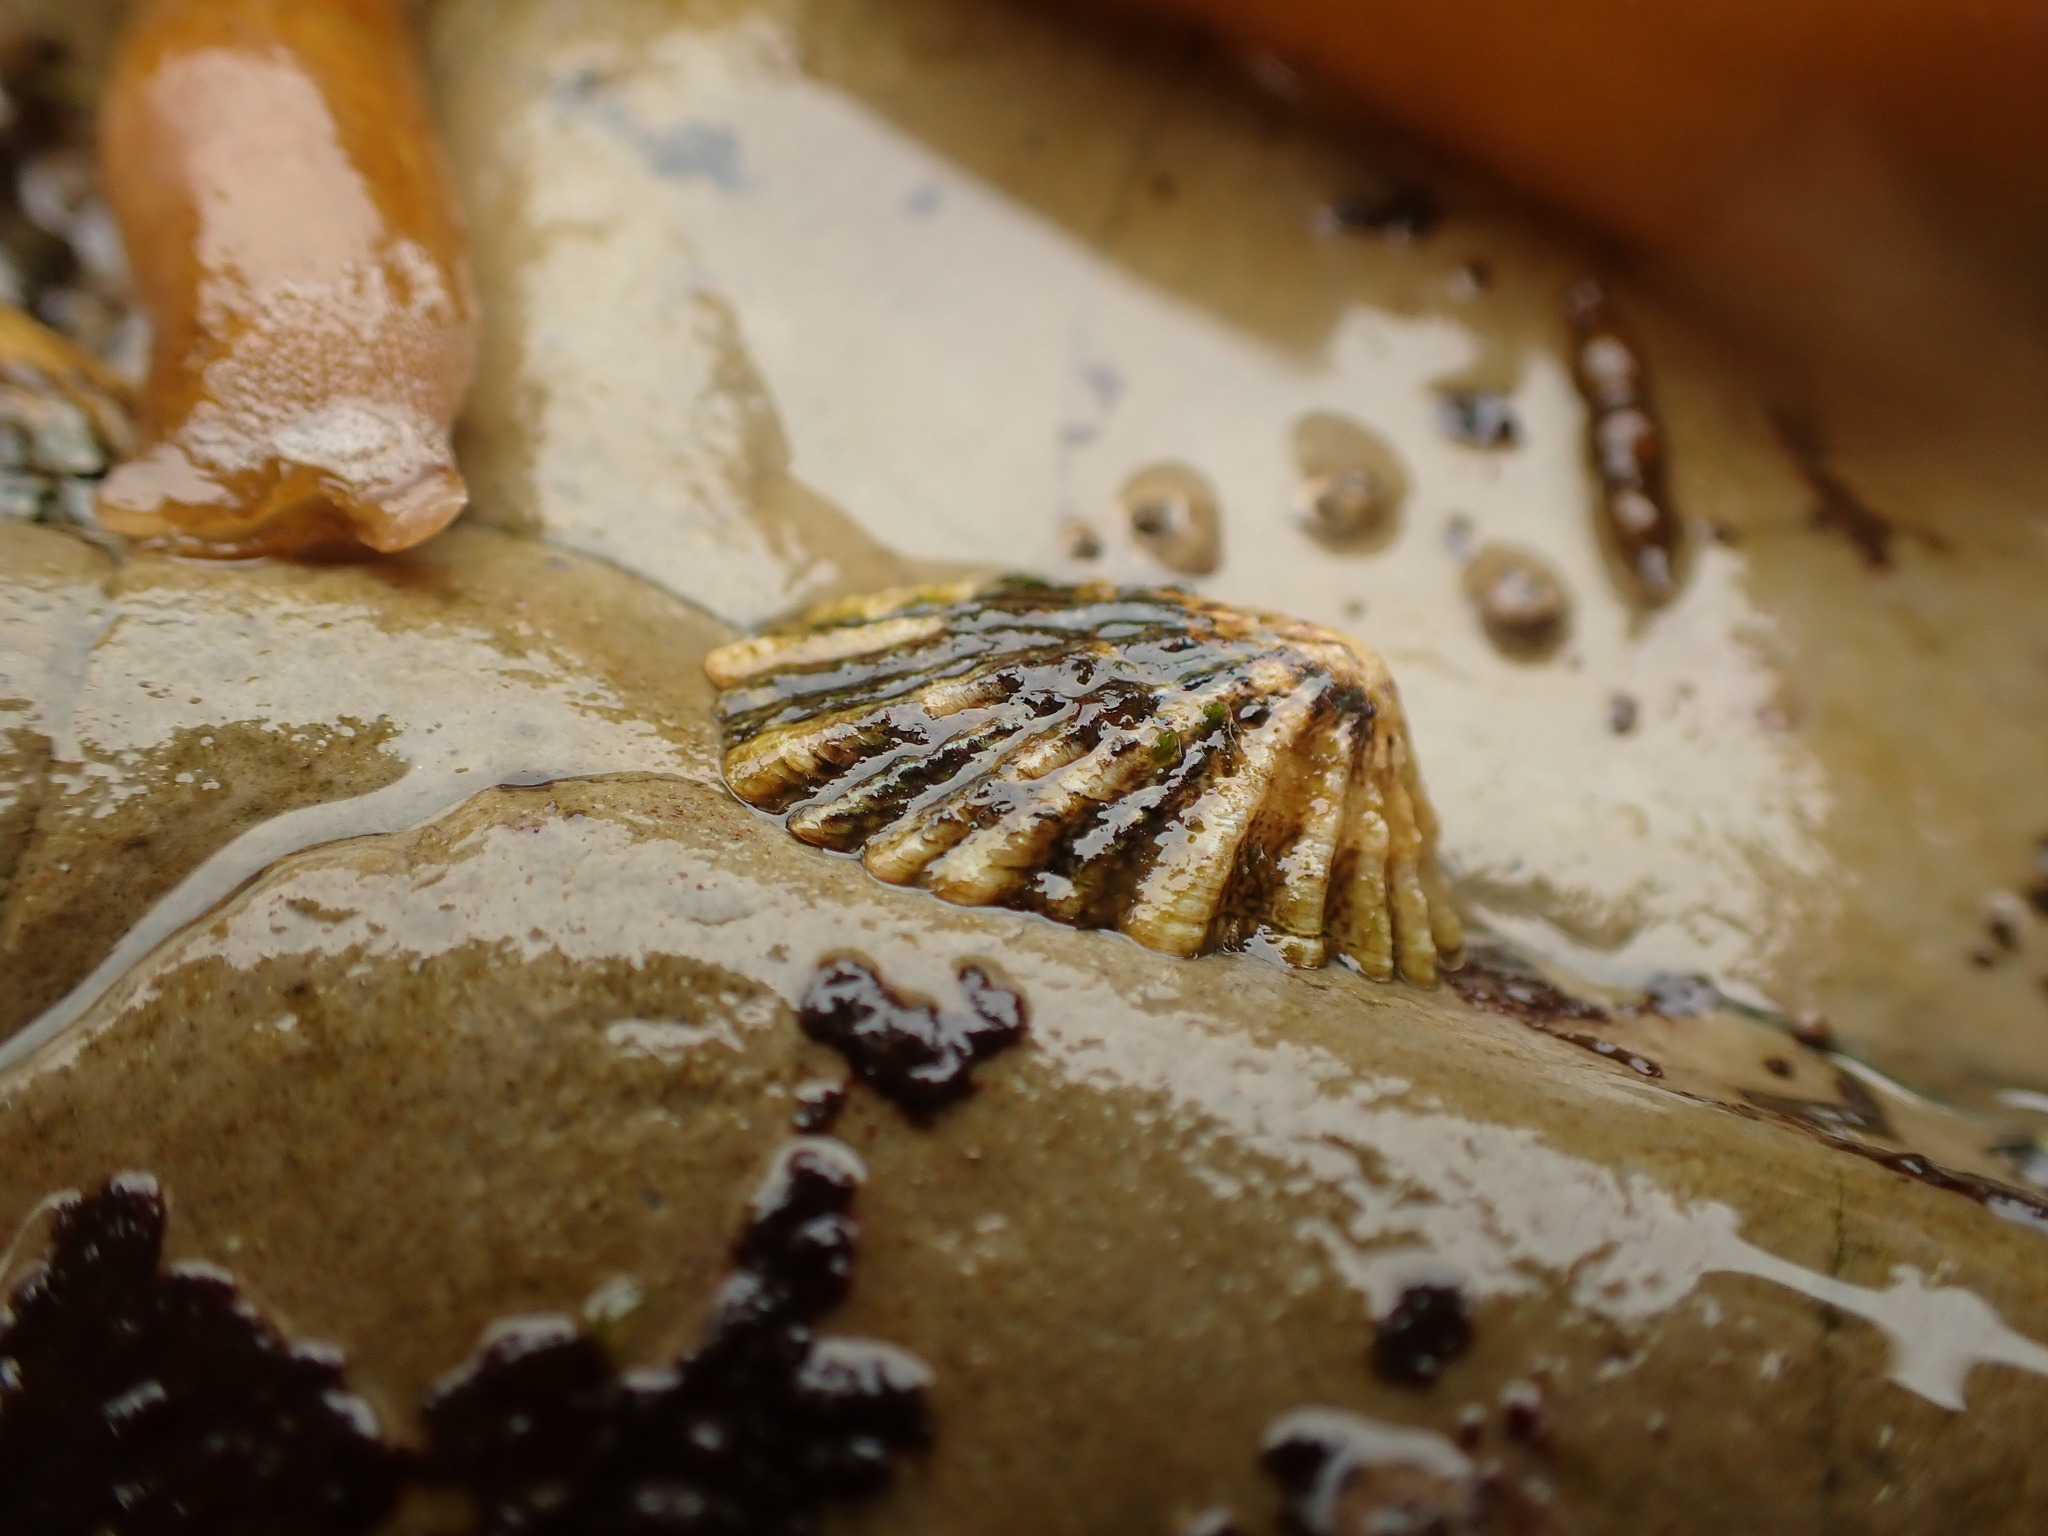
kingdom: Animalia
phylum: Mollusca
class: Gastropoda
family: Lottiidae
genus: Lottia
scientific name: Lottia scabra
